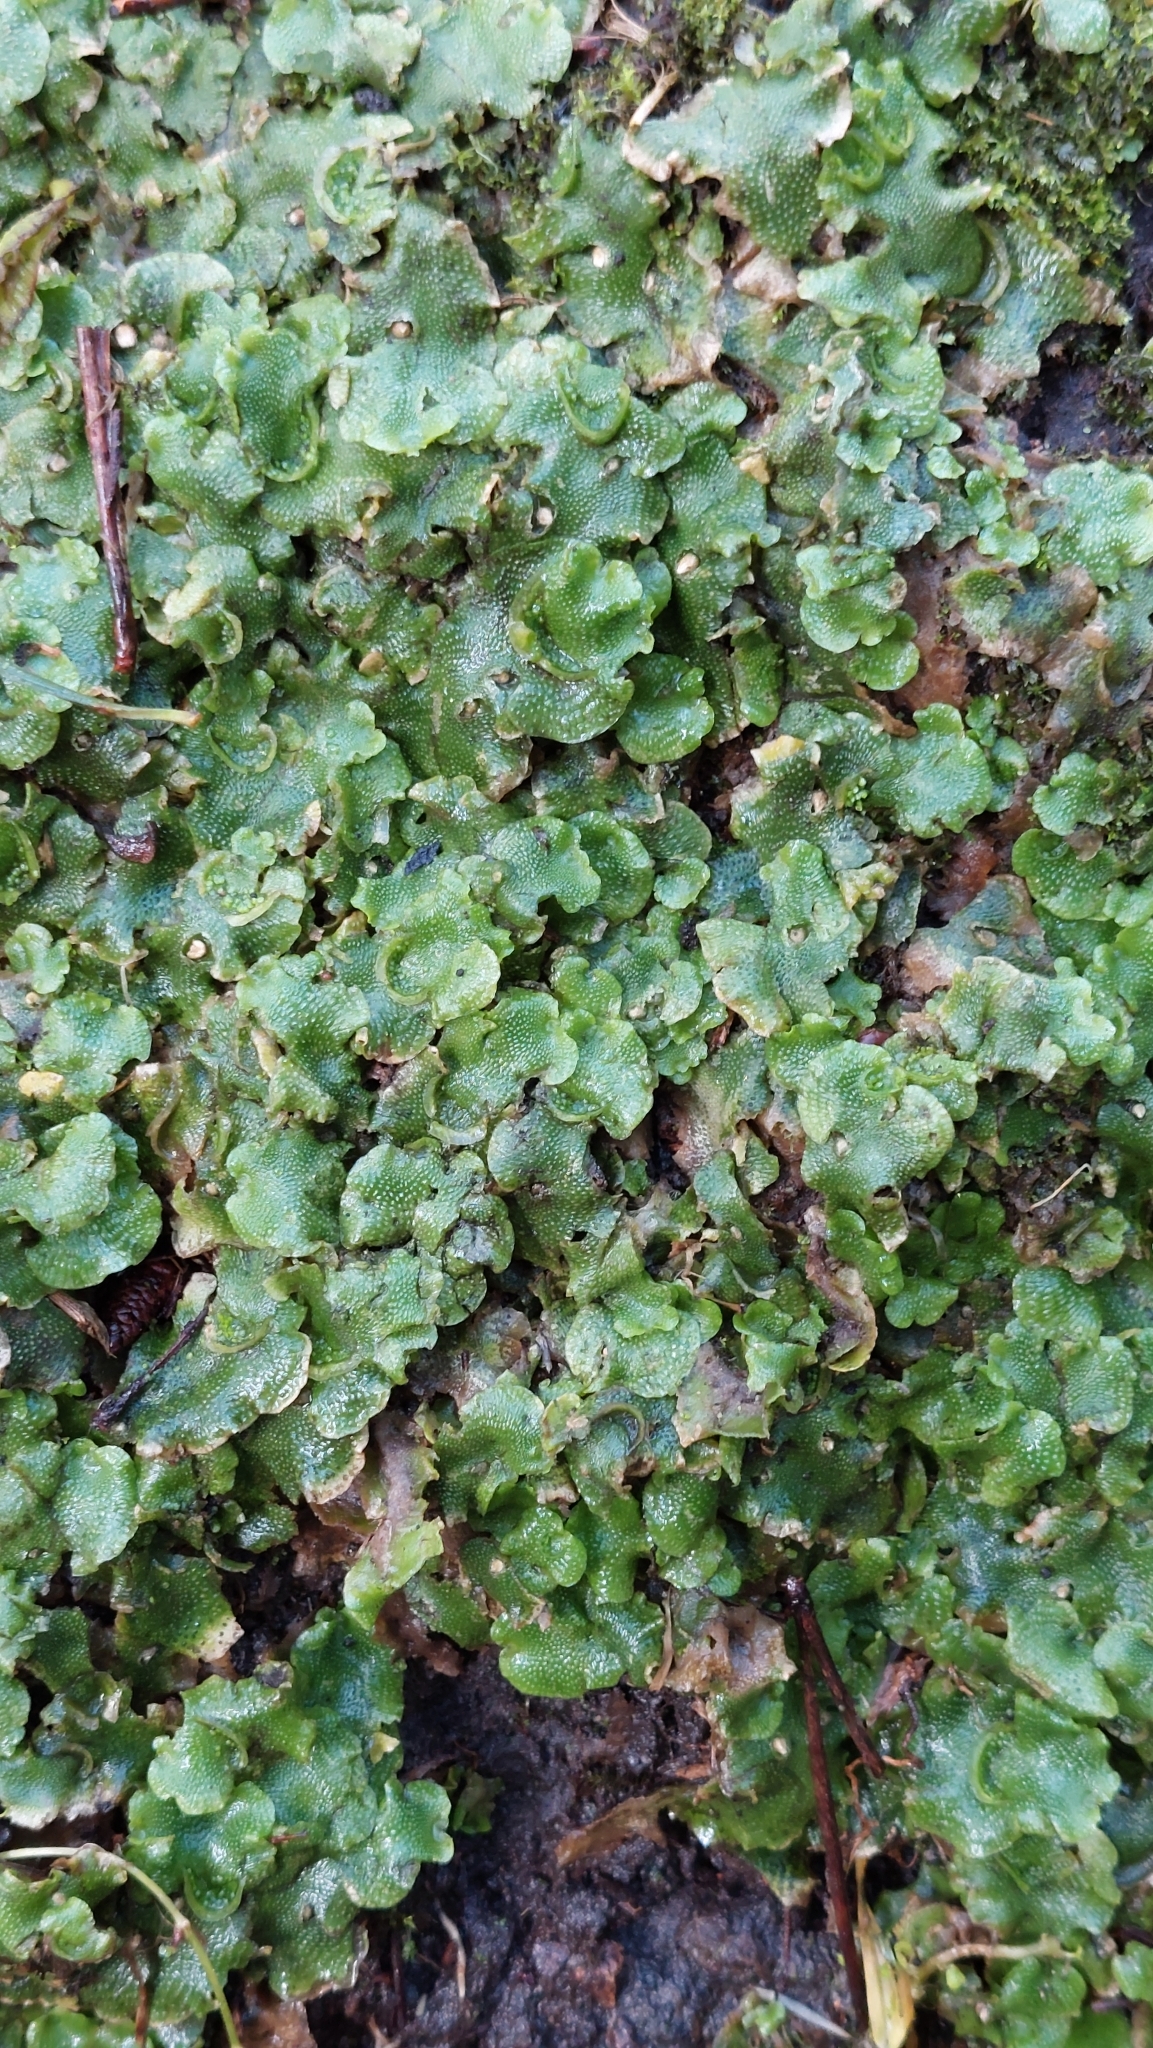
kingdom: Plantae
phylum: Marchantiophyta
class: Marchantiopsida
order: Lunulariales
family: Lunulariaceae
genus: Lunularia
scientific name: Lunularia cruciata
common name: Crescent-cup liverwort
